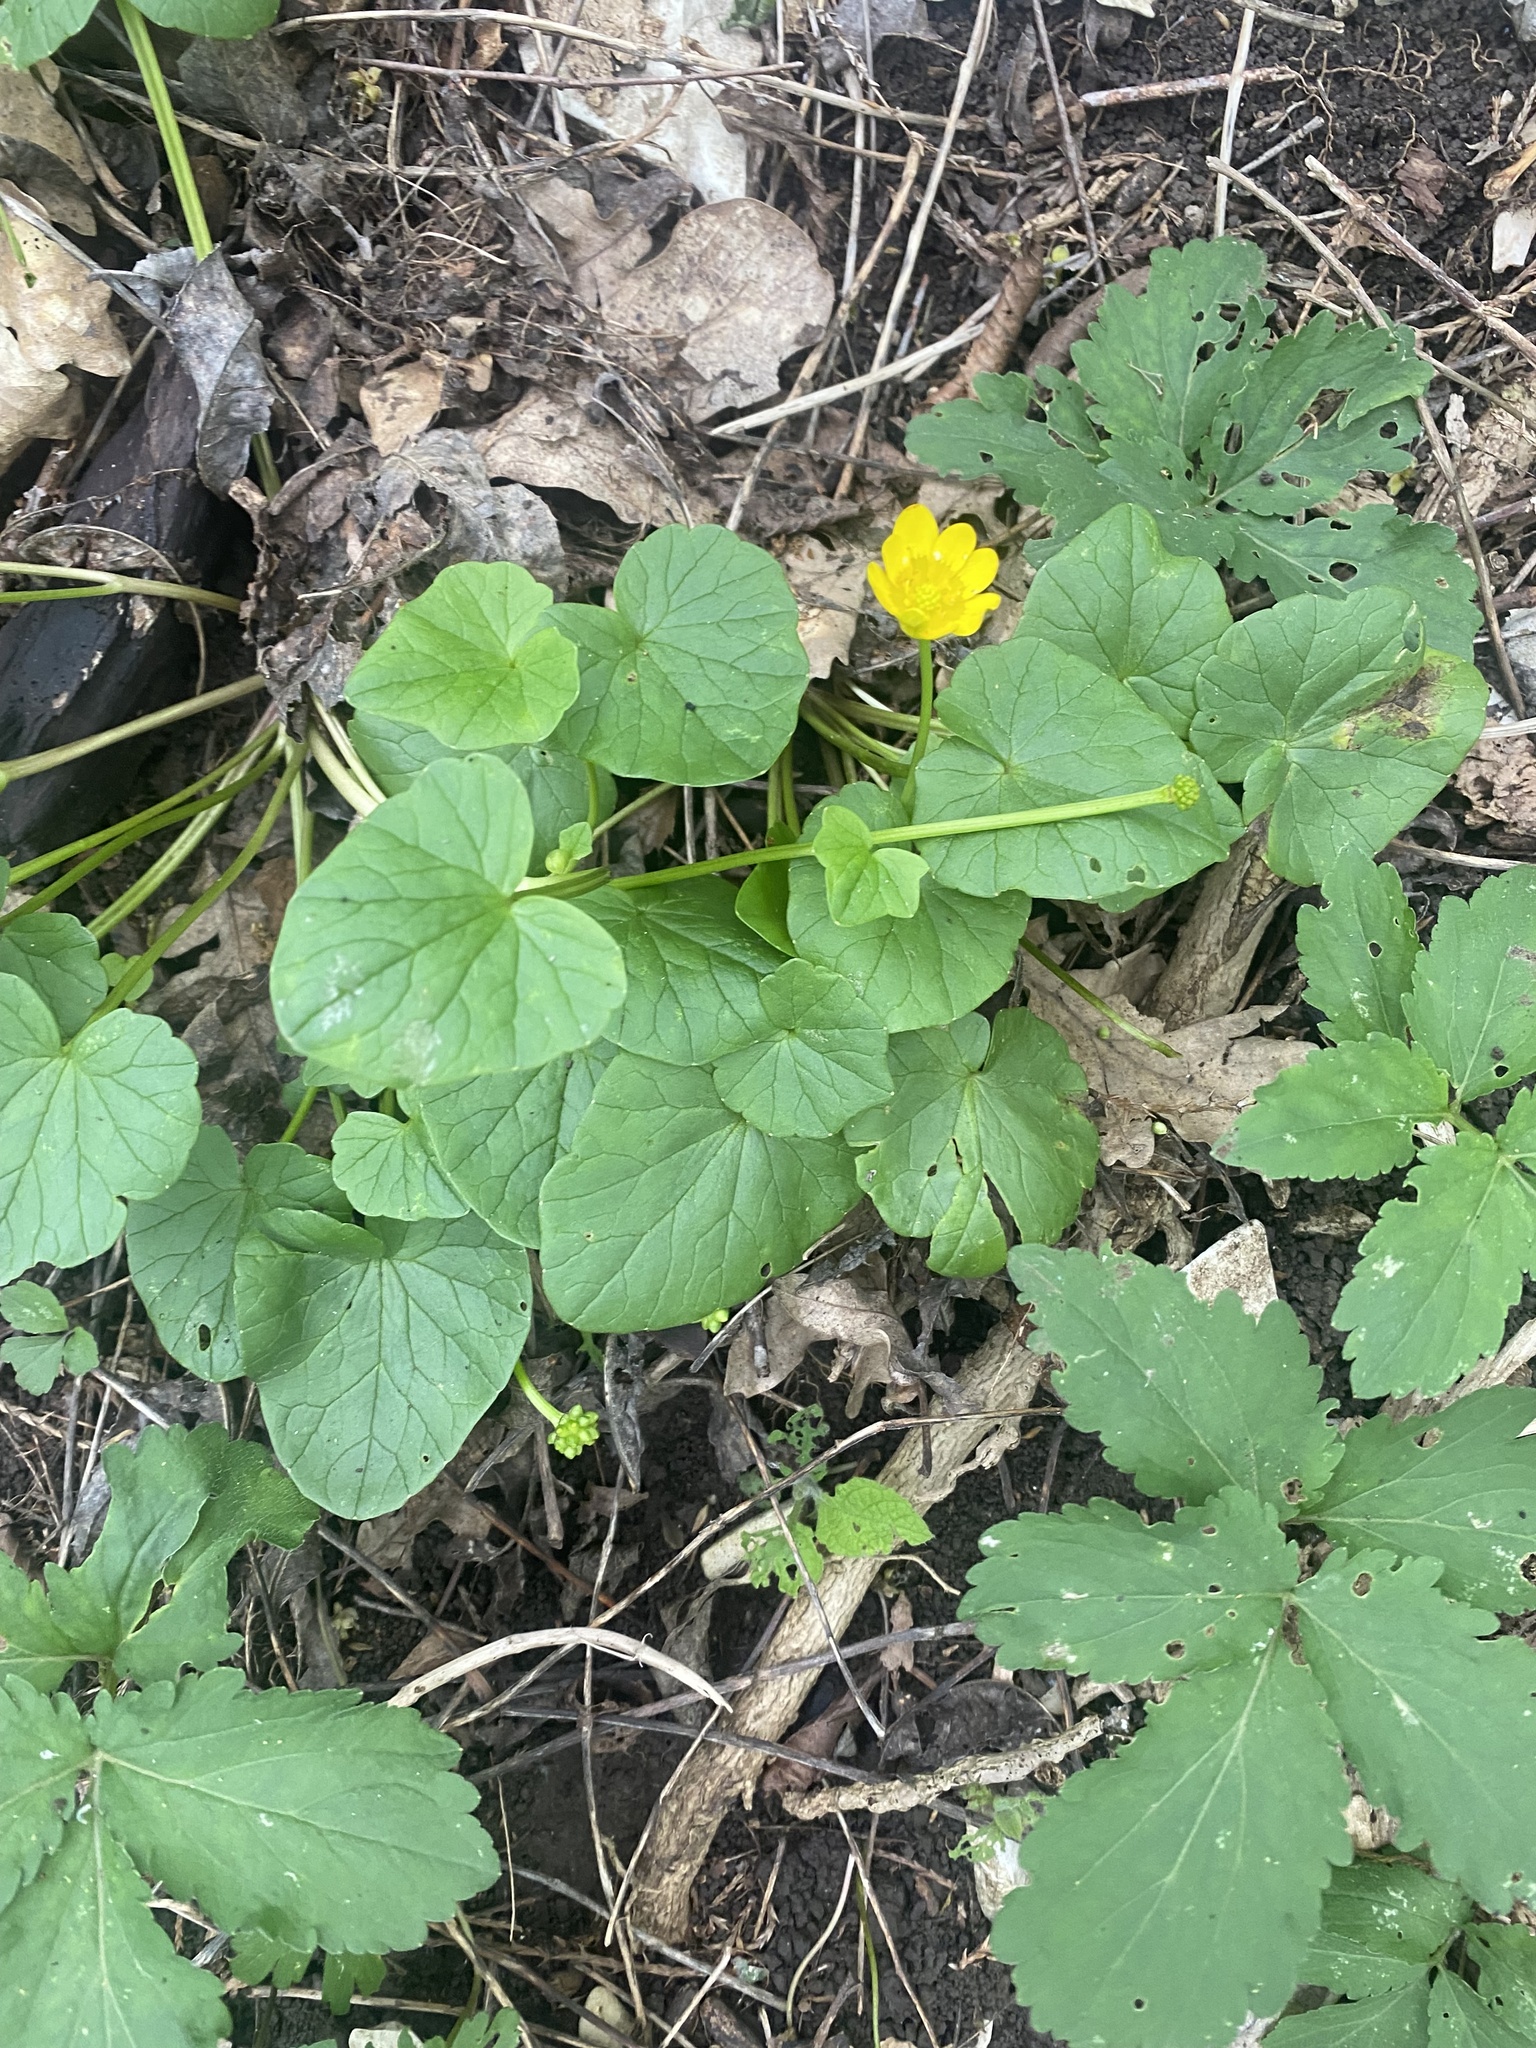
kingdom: Plantae
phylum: Tracheophyta
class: Magnoliopsida
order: Ranunculales
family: Ranunculaceae
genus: Ficaria
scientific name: Ficaria verna
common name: Lesser celandine
